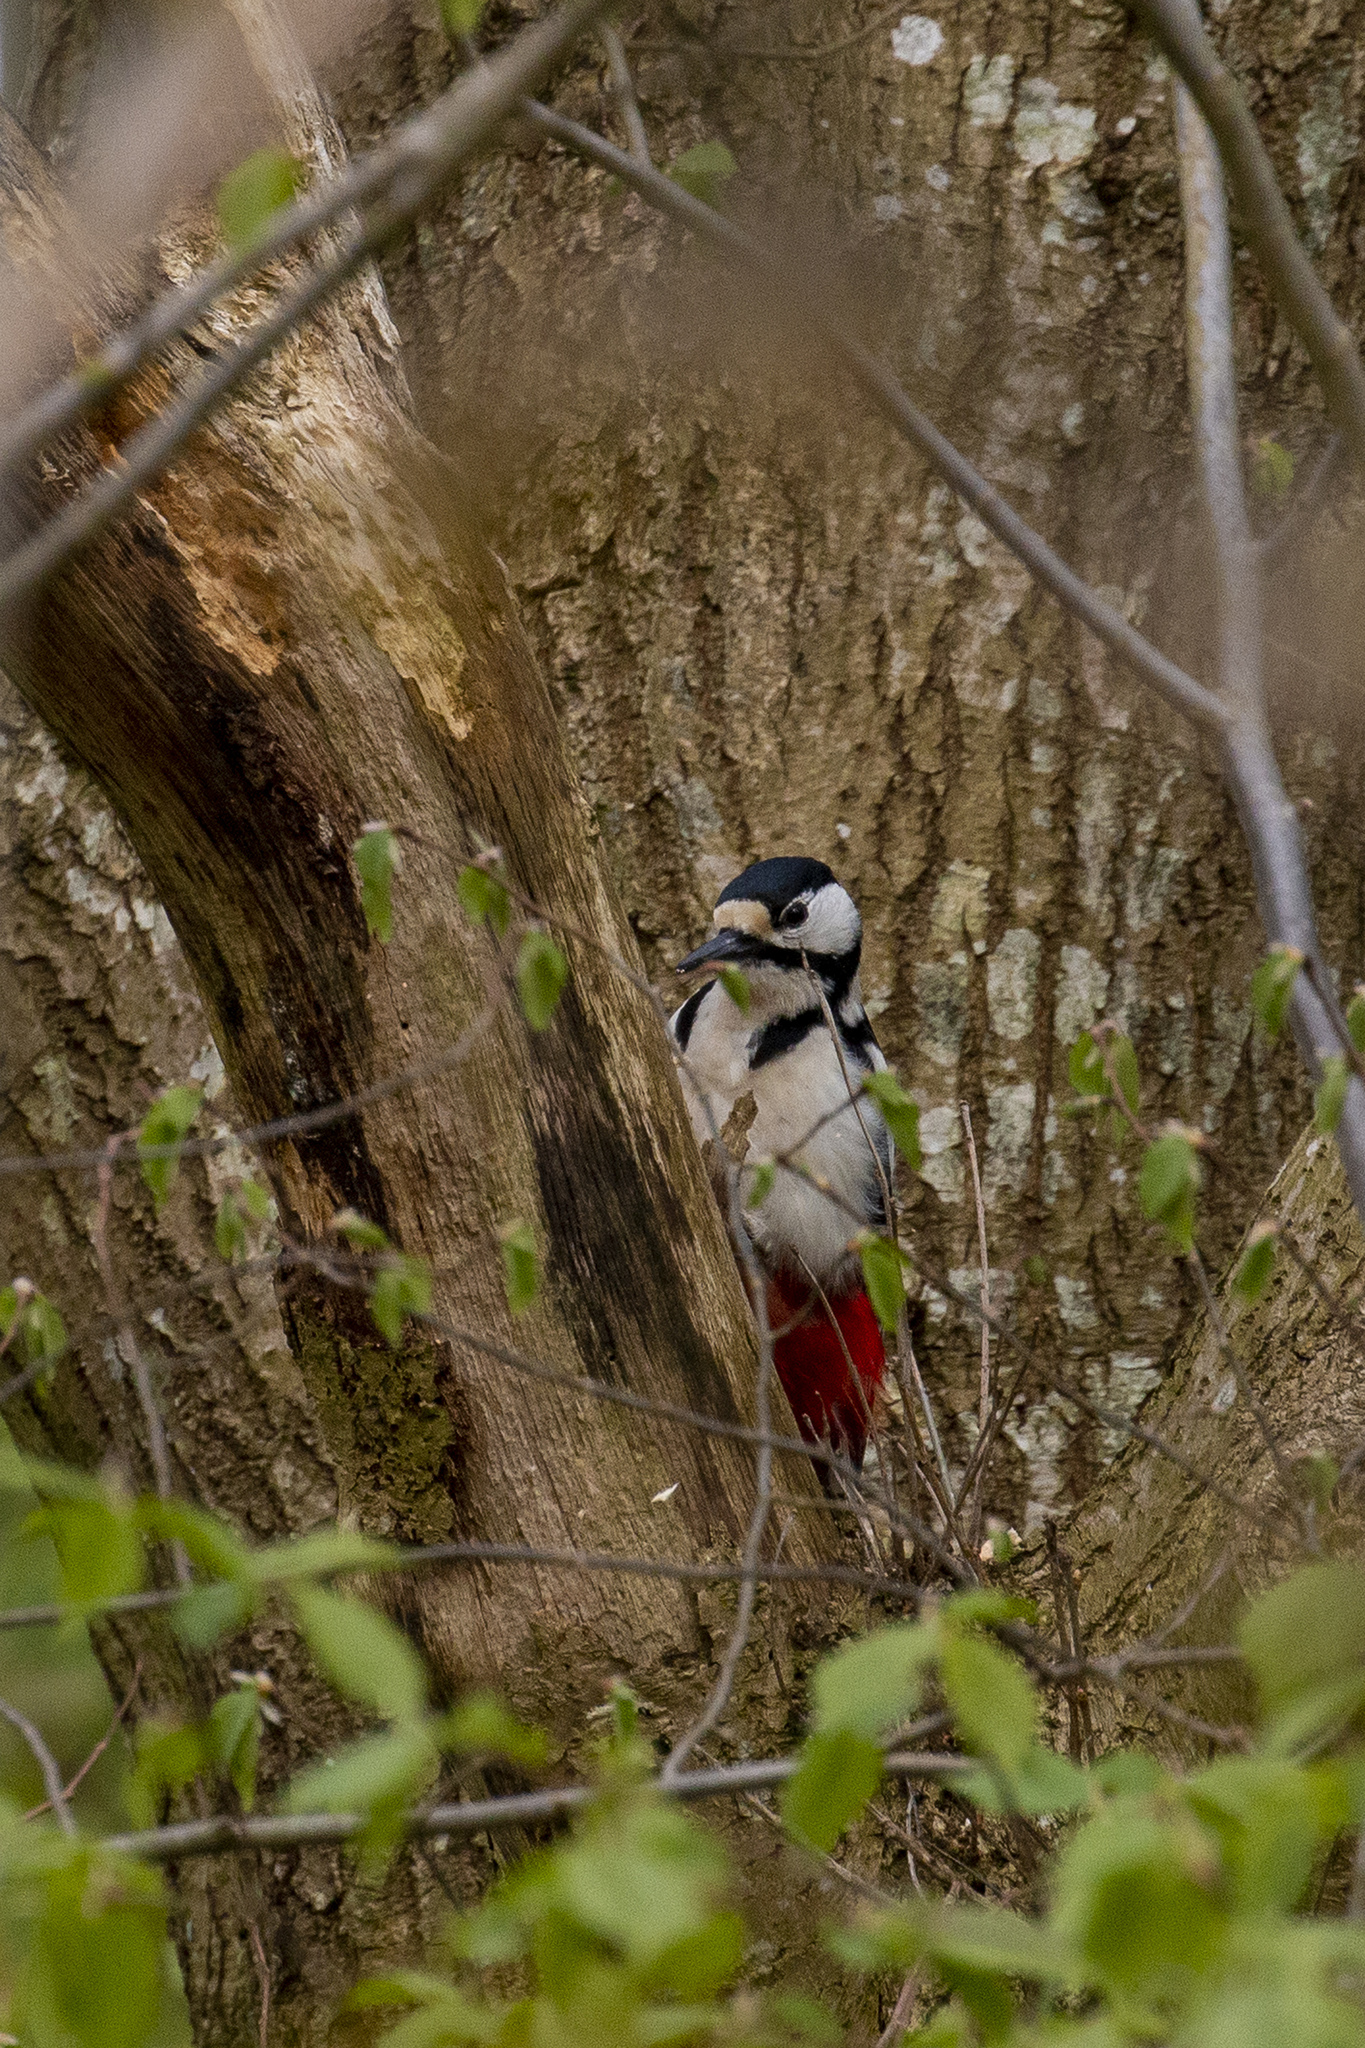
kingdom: Animalia
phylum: Chordata
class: Aves
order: Piciformes
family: Picidae
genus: Dendrocopos
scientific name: Dendrocopos major
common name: Great spotted woodpecker
